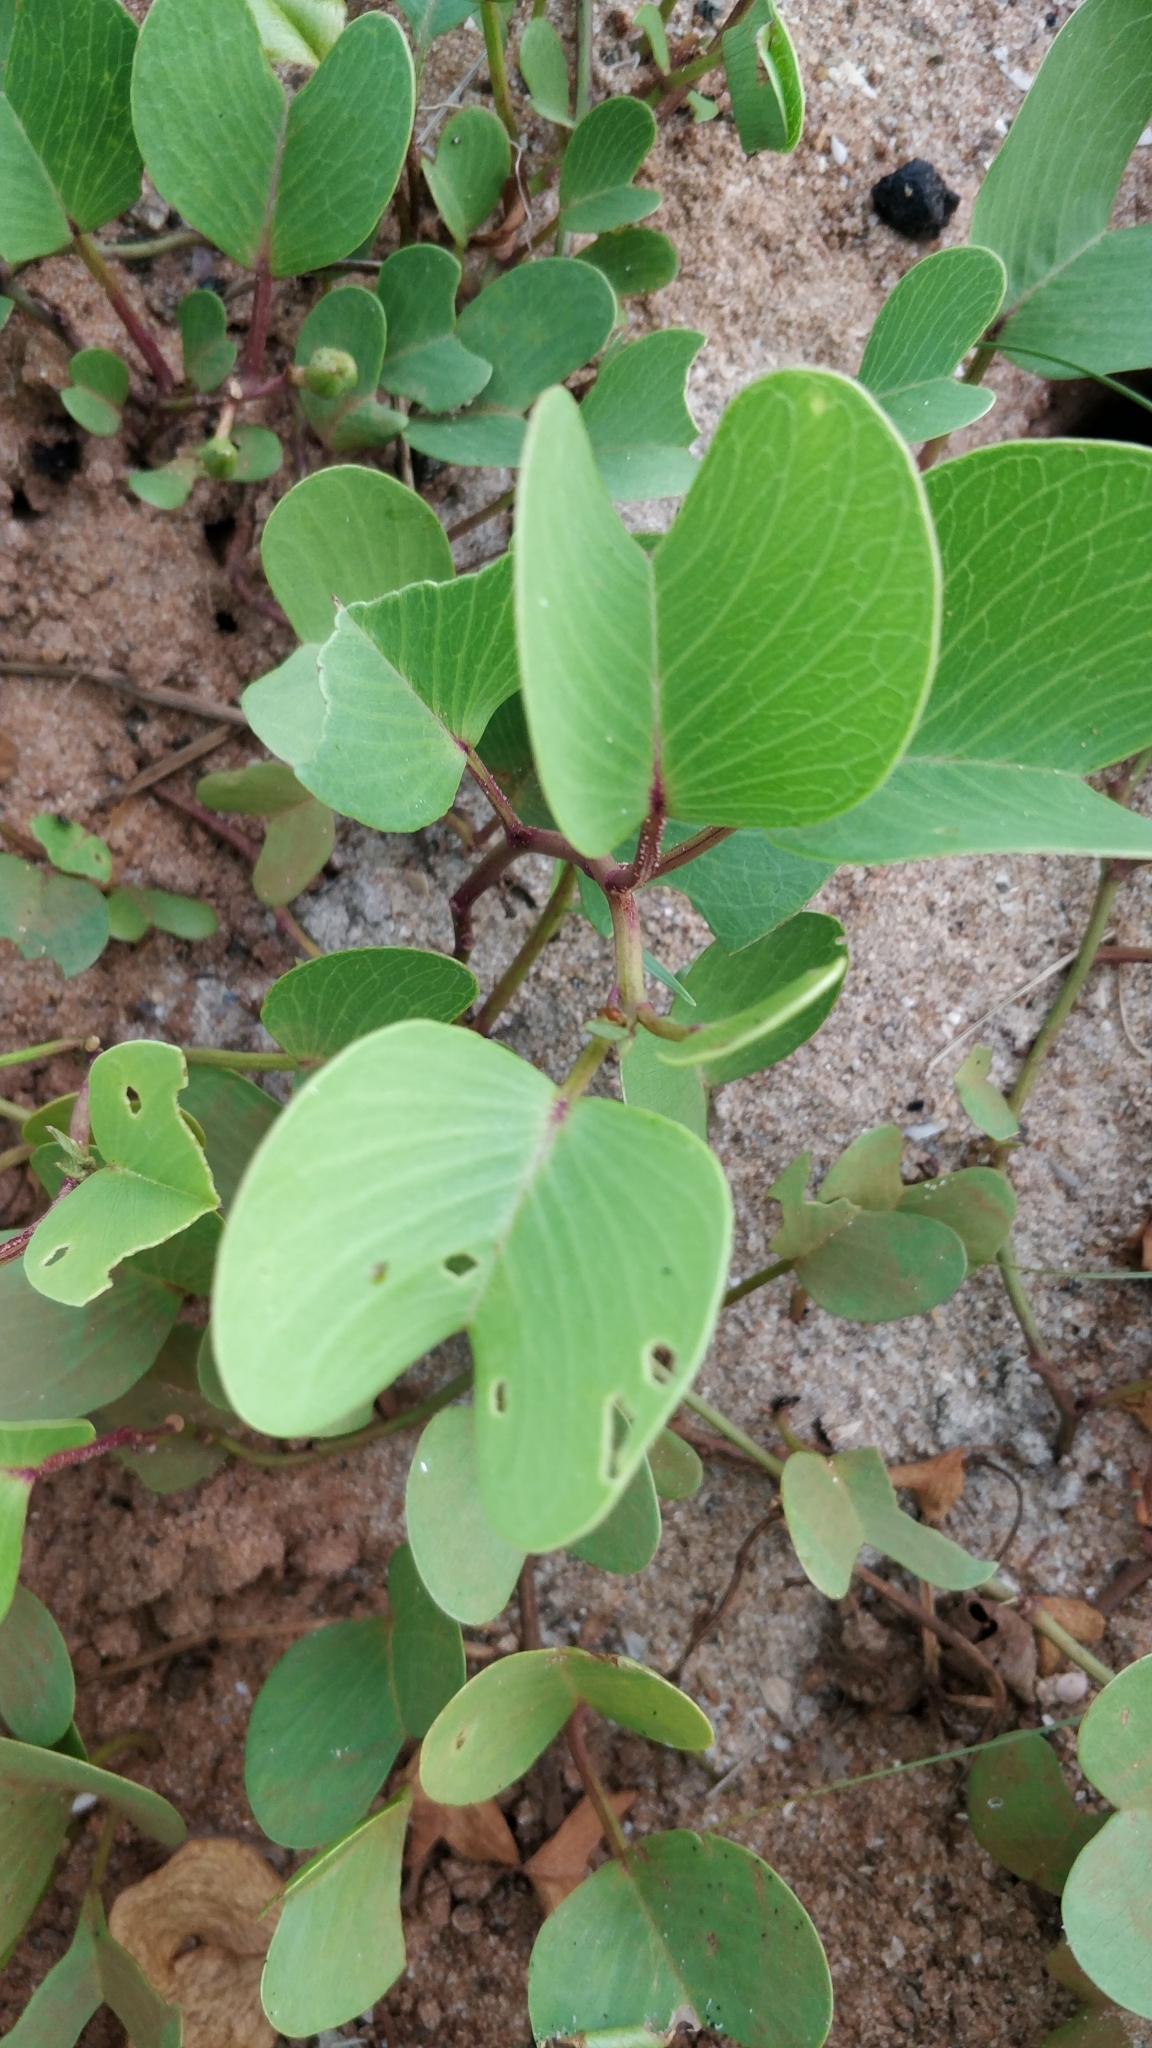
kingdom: Plantae
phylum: Tracheophyta
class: Magnoliopsida
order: Solanales
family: Convolvulaceae
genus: Ipomoea
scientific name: Ipomoea pes-caprae
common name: Beach morning glory
